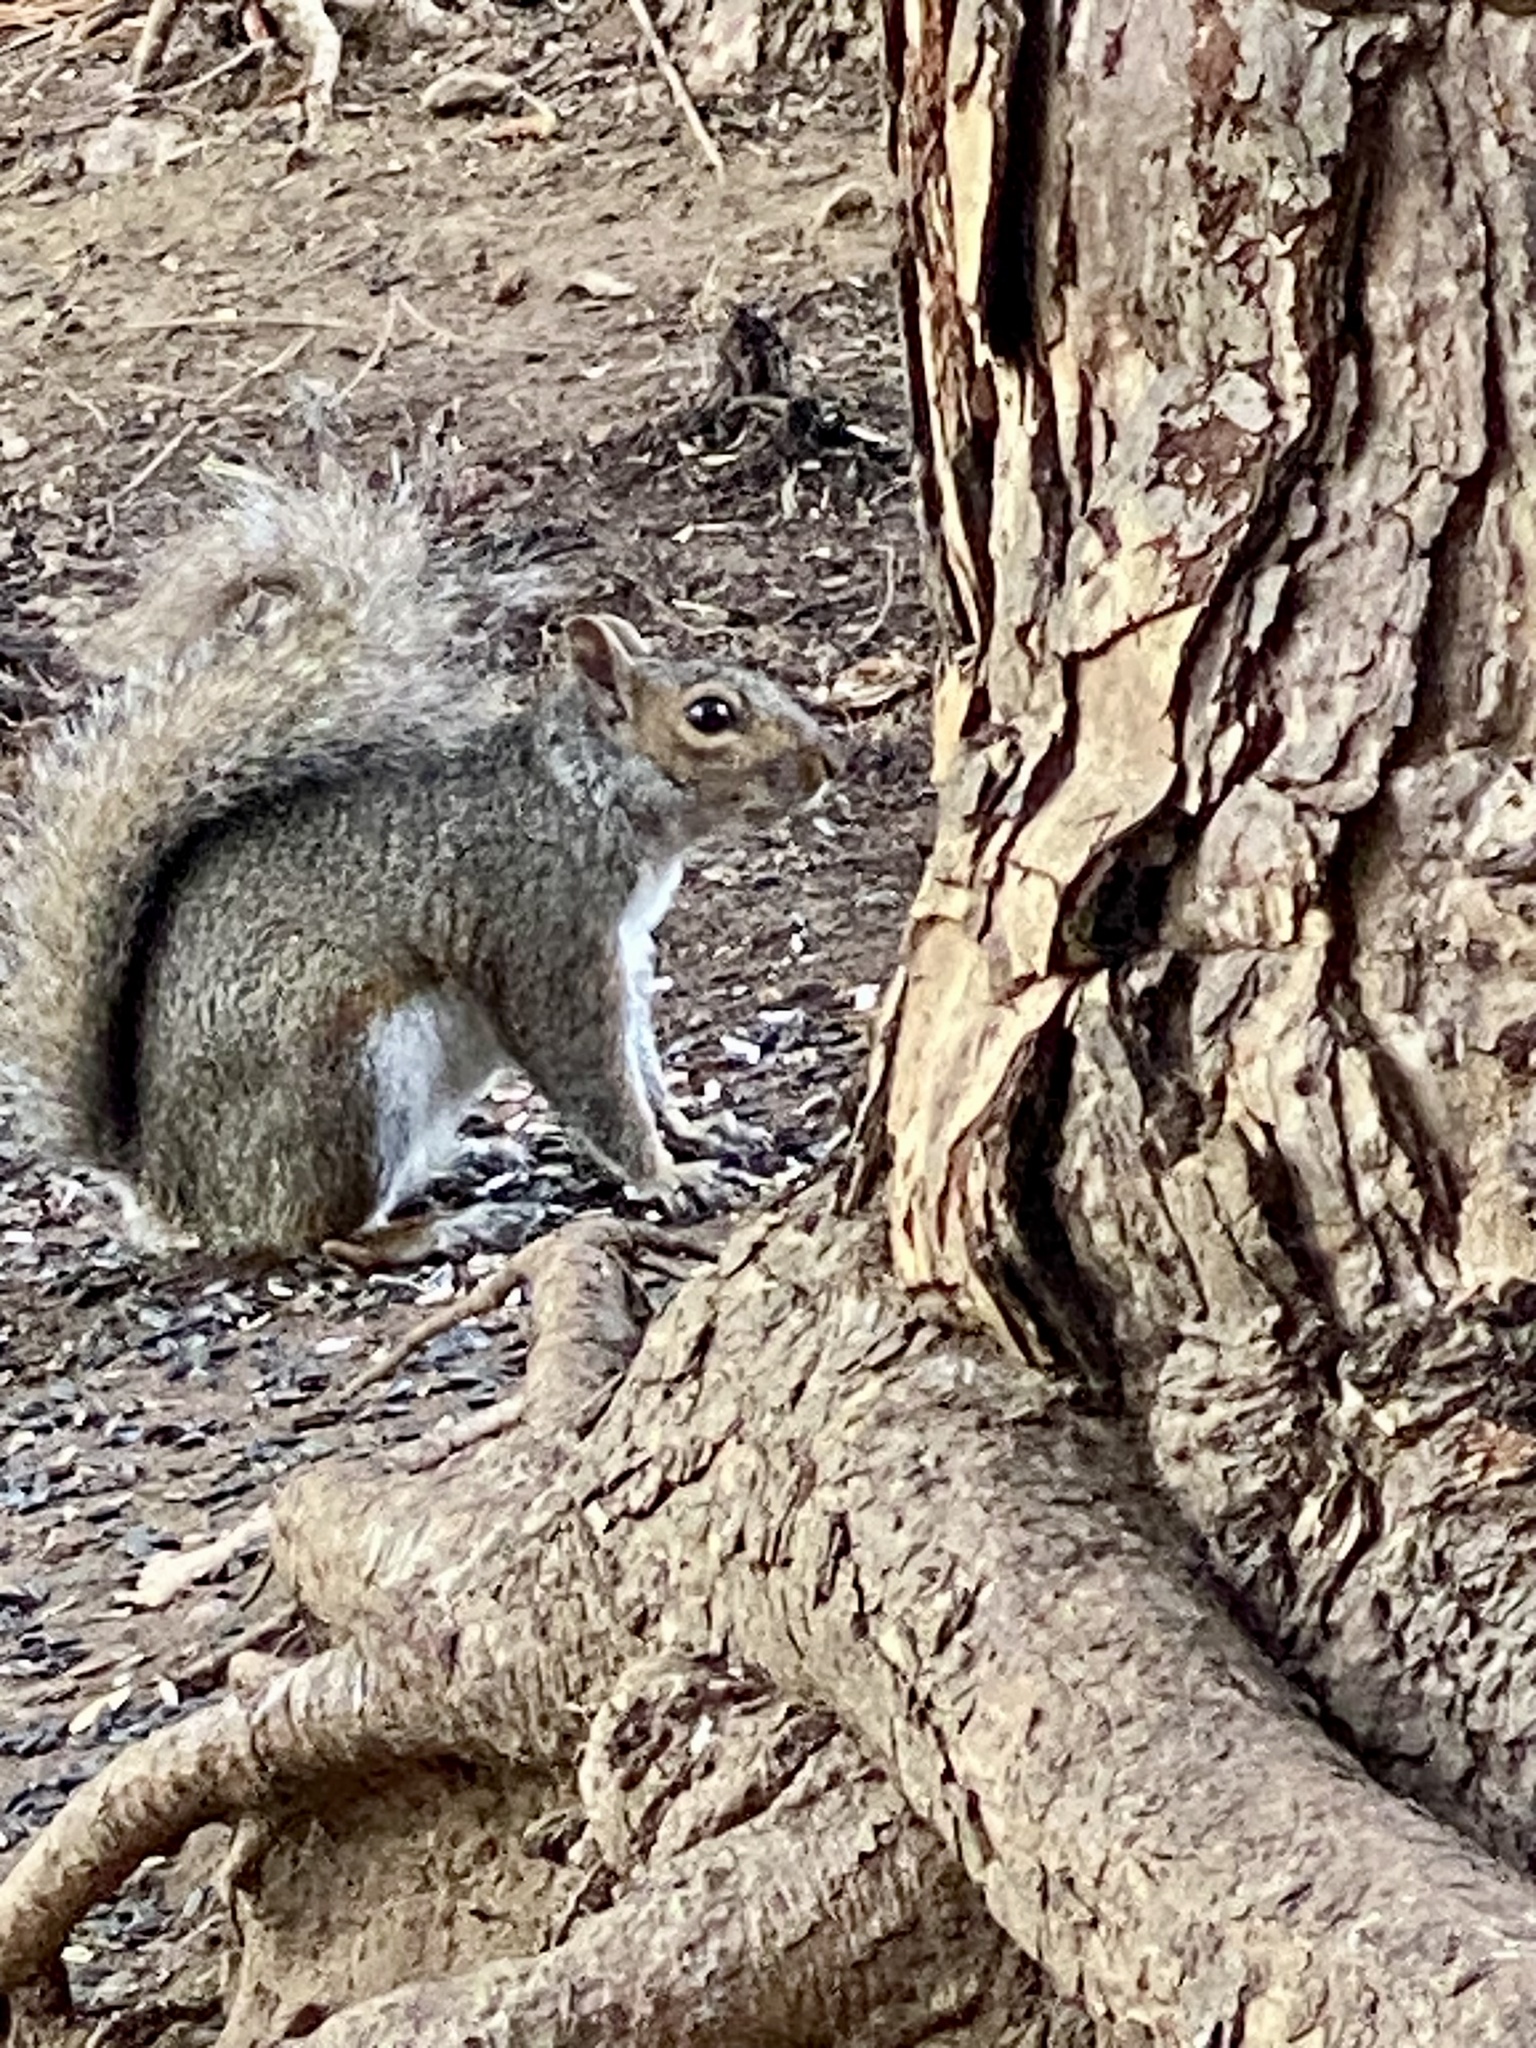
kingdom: Animalia
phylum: Chordata
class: Mammalia
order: Rodentia
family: Sciuridae
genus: Sciurus
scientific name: Sciurus carolinensis
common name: Eastern gray squirrel
